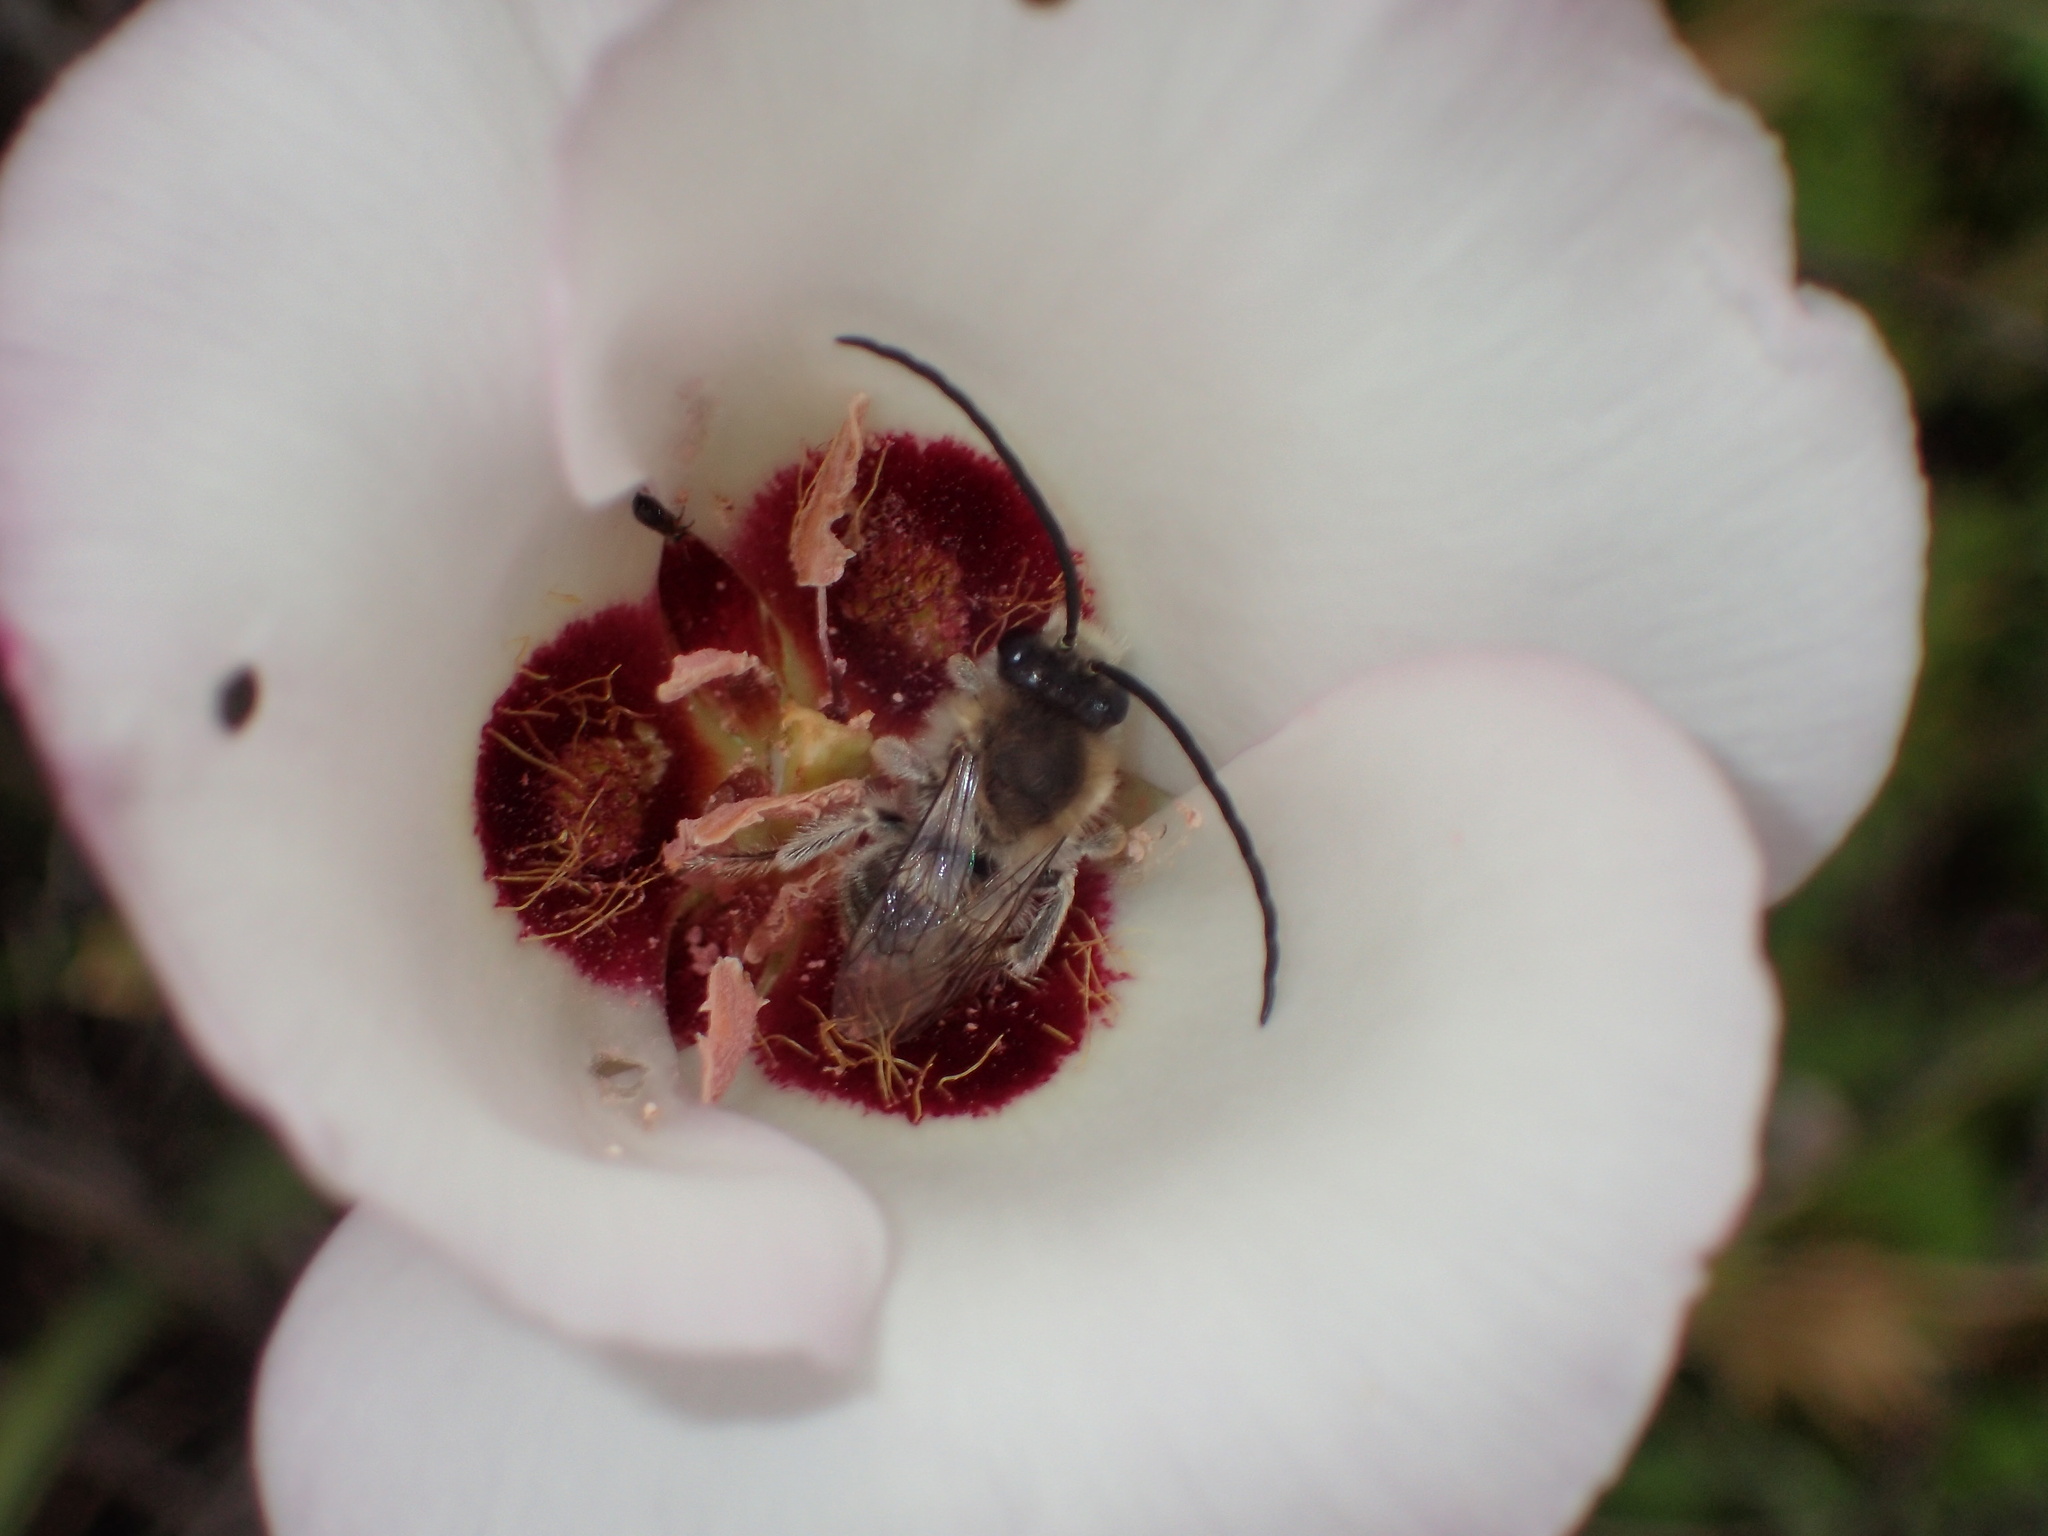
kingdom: Plantae
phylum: Tracheophyta
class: Liliopsida
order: Liliales
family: Liliaceae
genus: Calochortus
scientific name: Calochortus catalinae
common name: Catalina mariposa-lily
